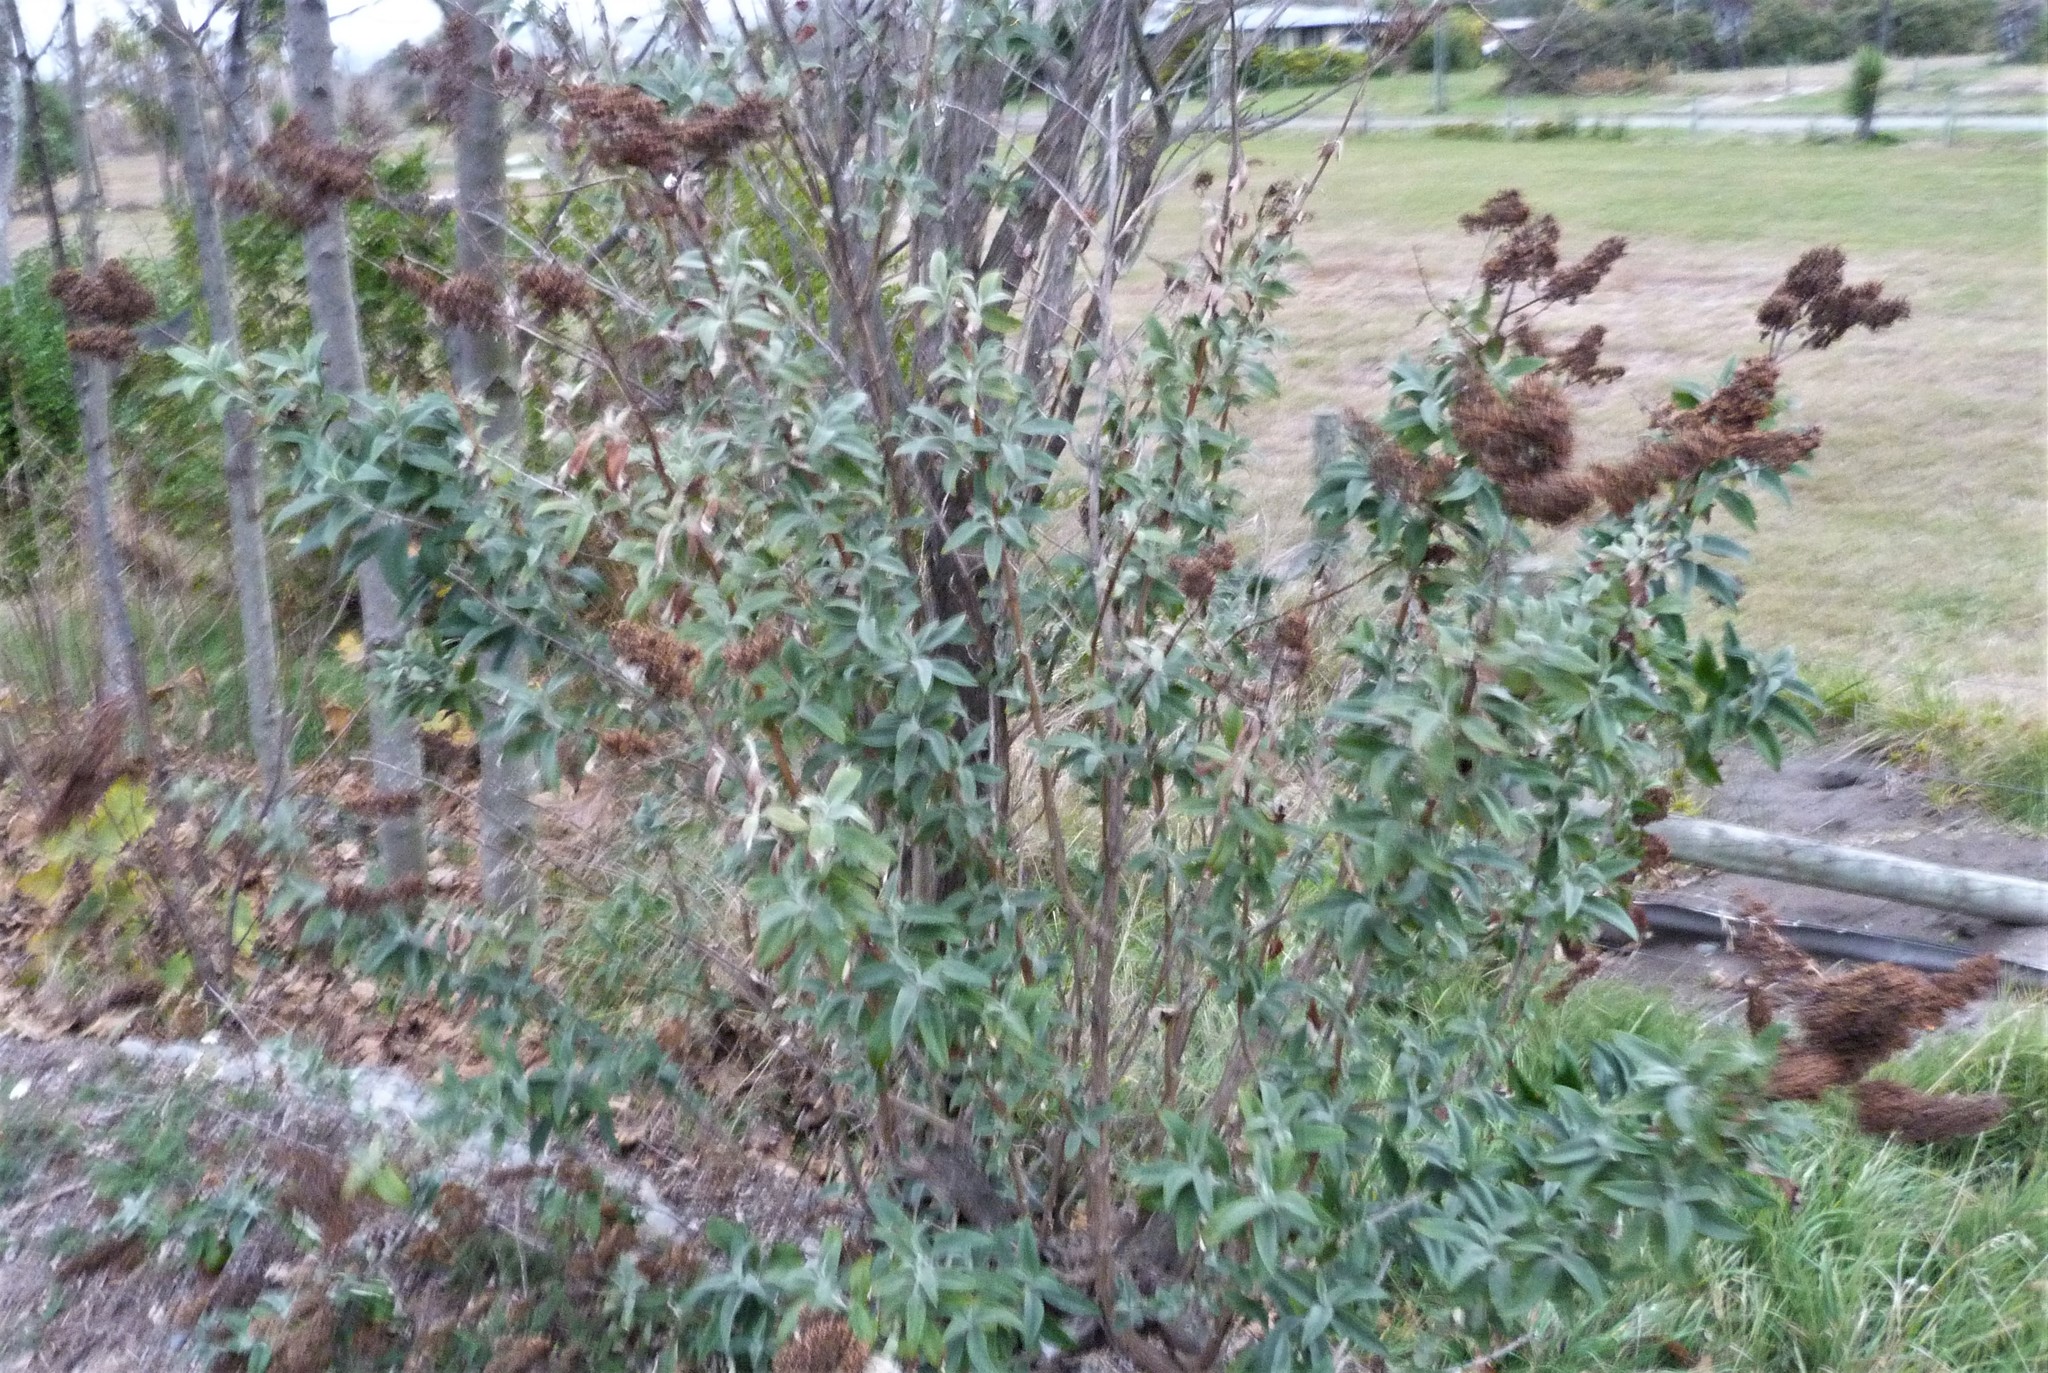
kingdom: Plantae
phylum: Tracheophyta
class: Magnoliopsida
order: Lamiales
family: Scrophulariaceae
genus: Buddleja
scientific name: Buddleja davidii
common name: Butterfly-bush
